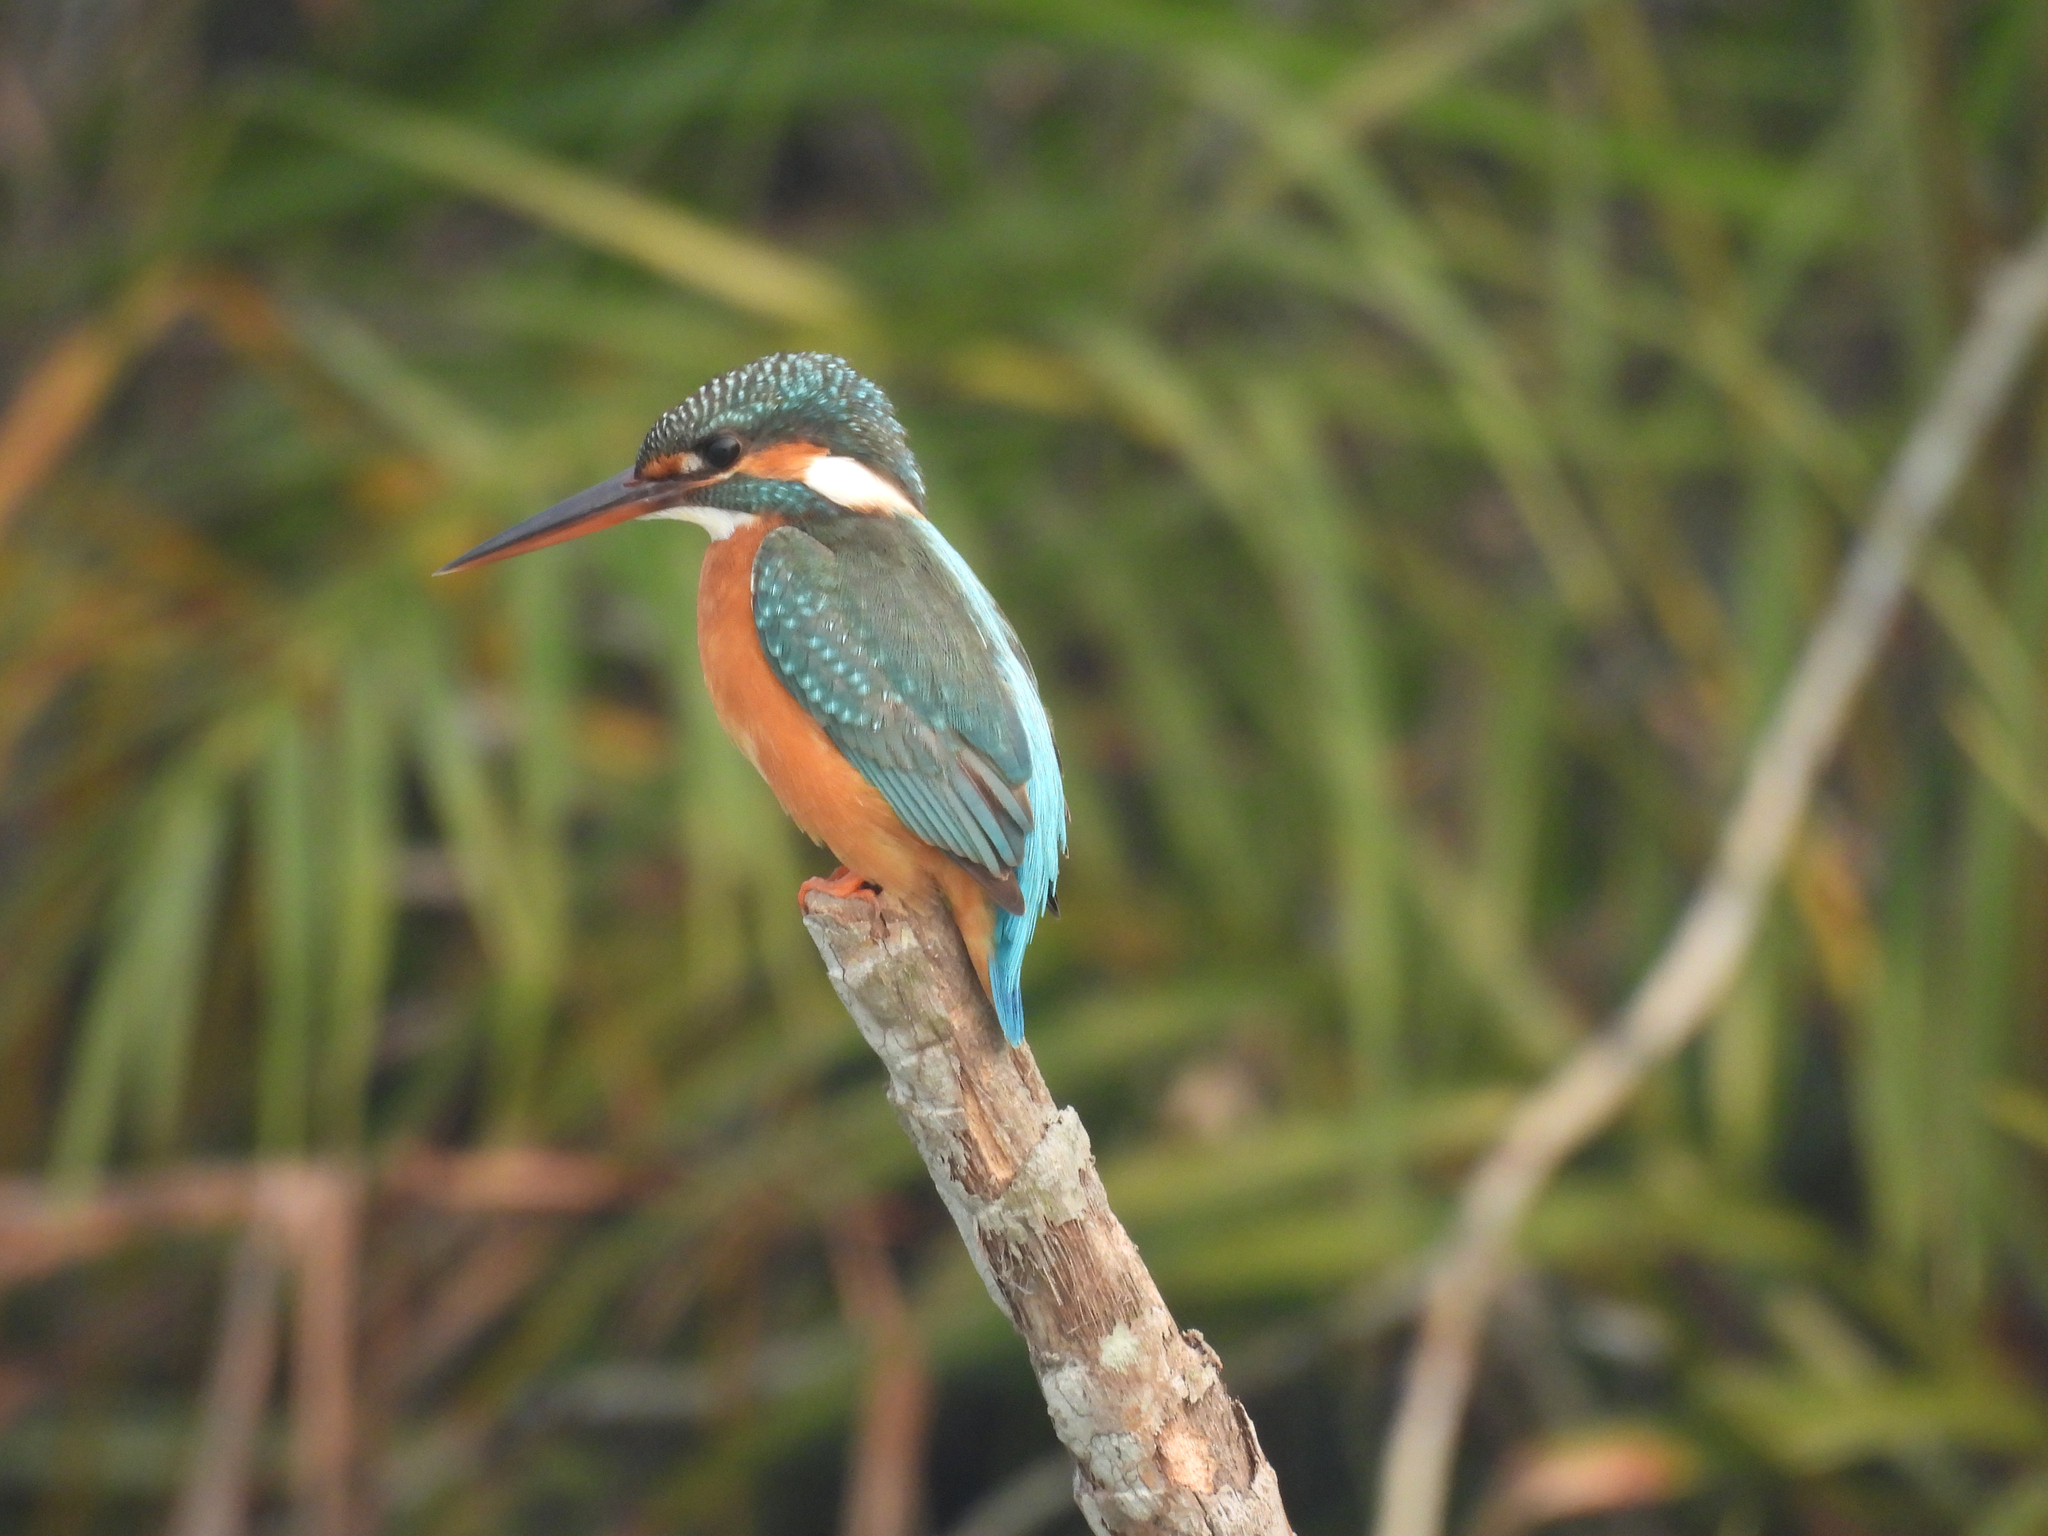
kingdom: Animalia
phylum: Chordata
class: Aves
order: Coraciiformes
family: Alcedinidae
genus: Alcedo
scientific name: Alcedo atthis
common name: Common kingfisher
